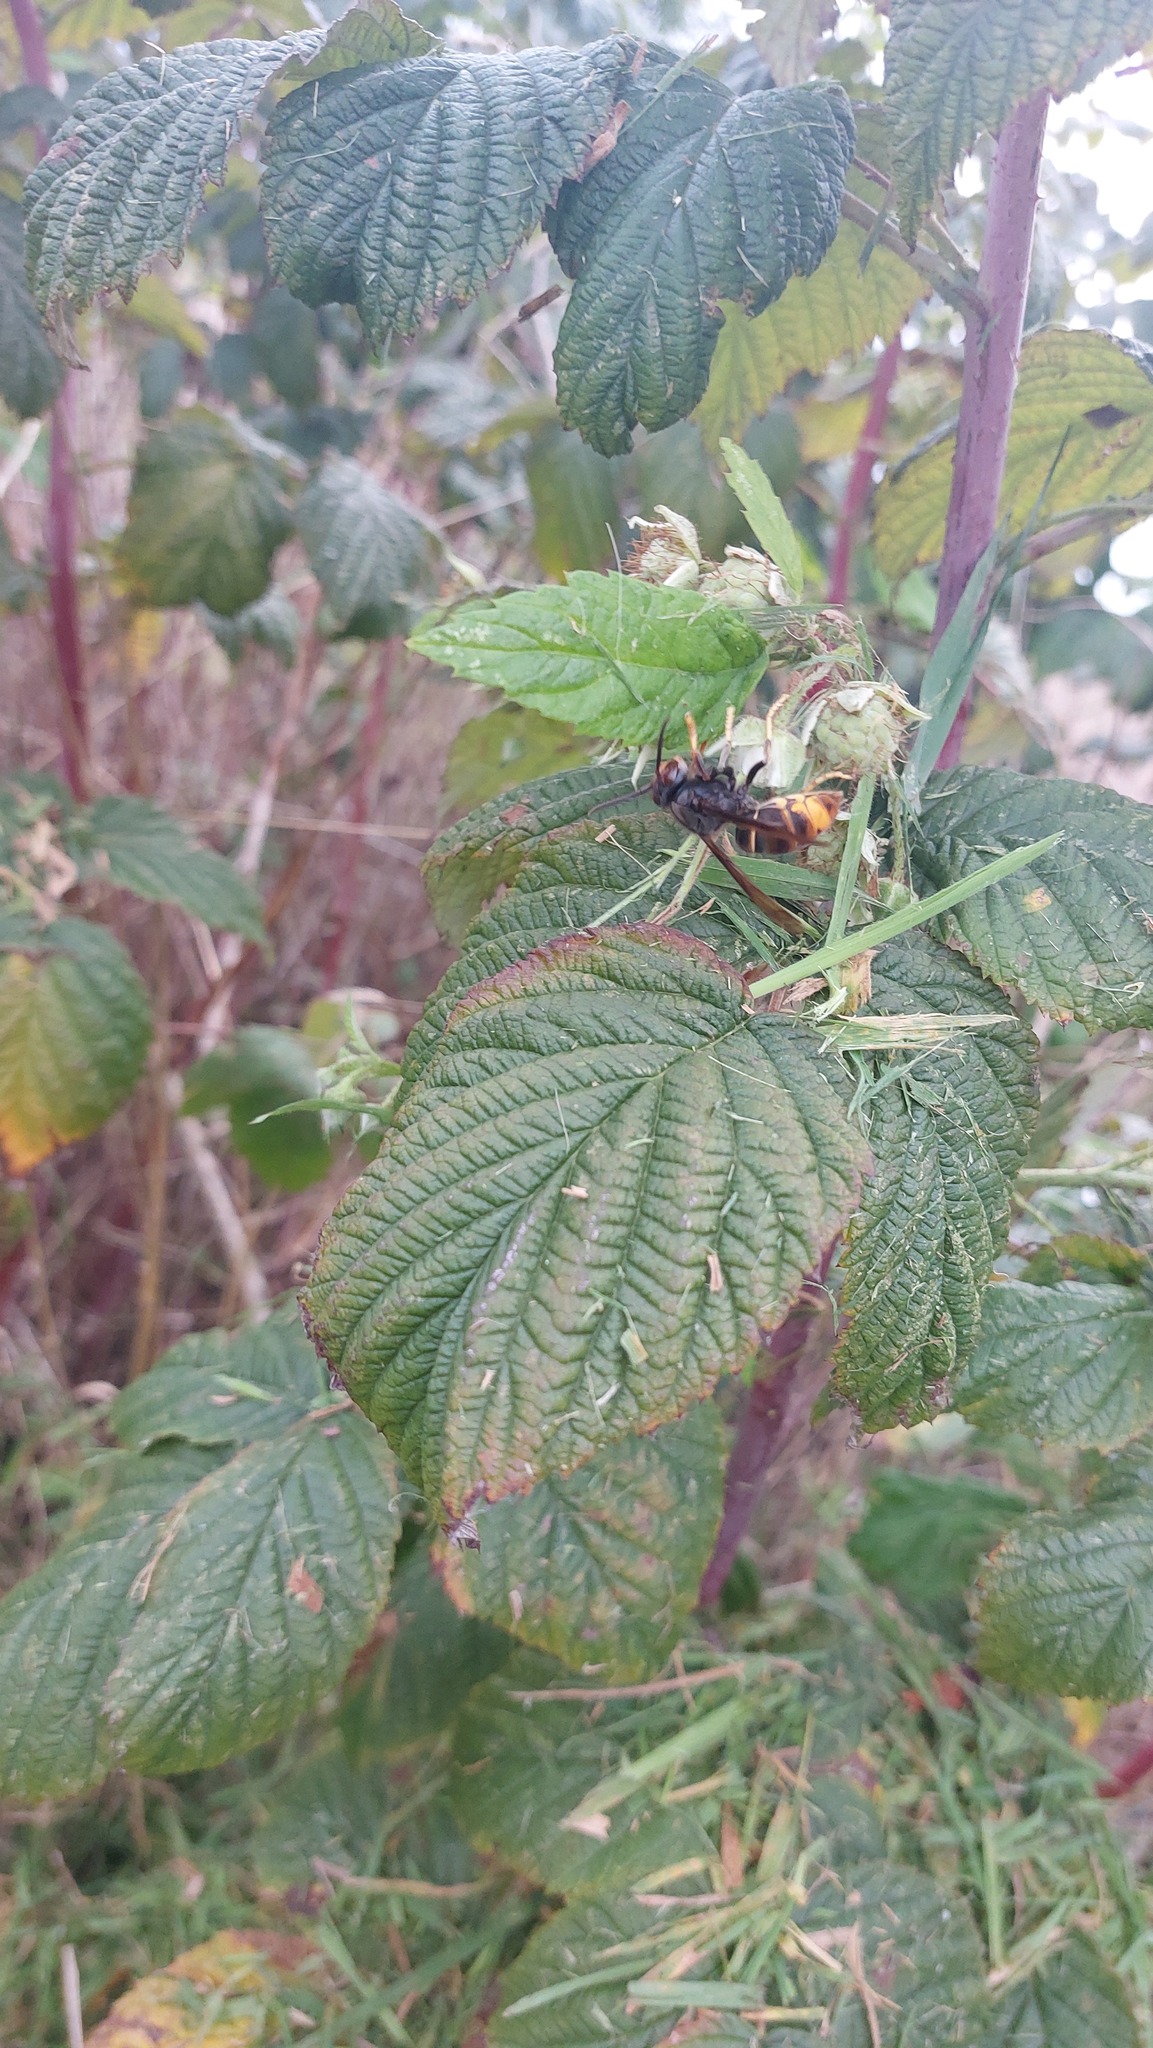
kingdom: Animalia
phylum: Arthropoda
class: Insecta
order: Hymenoptera
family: Vespidae
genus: Vespa
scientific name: Vespa velutina
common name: Asian hornet
